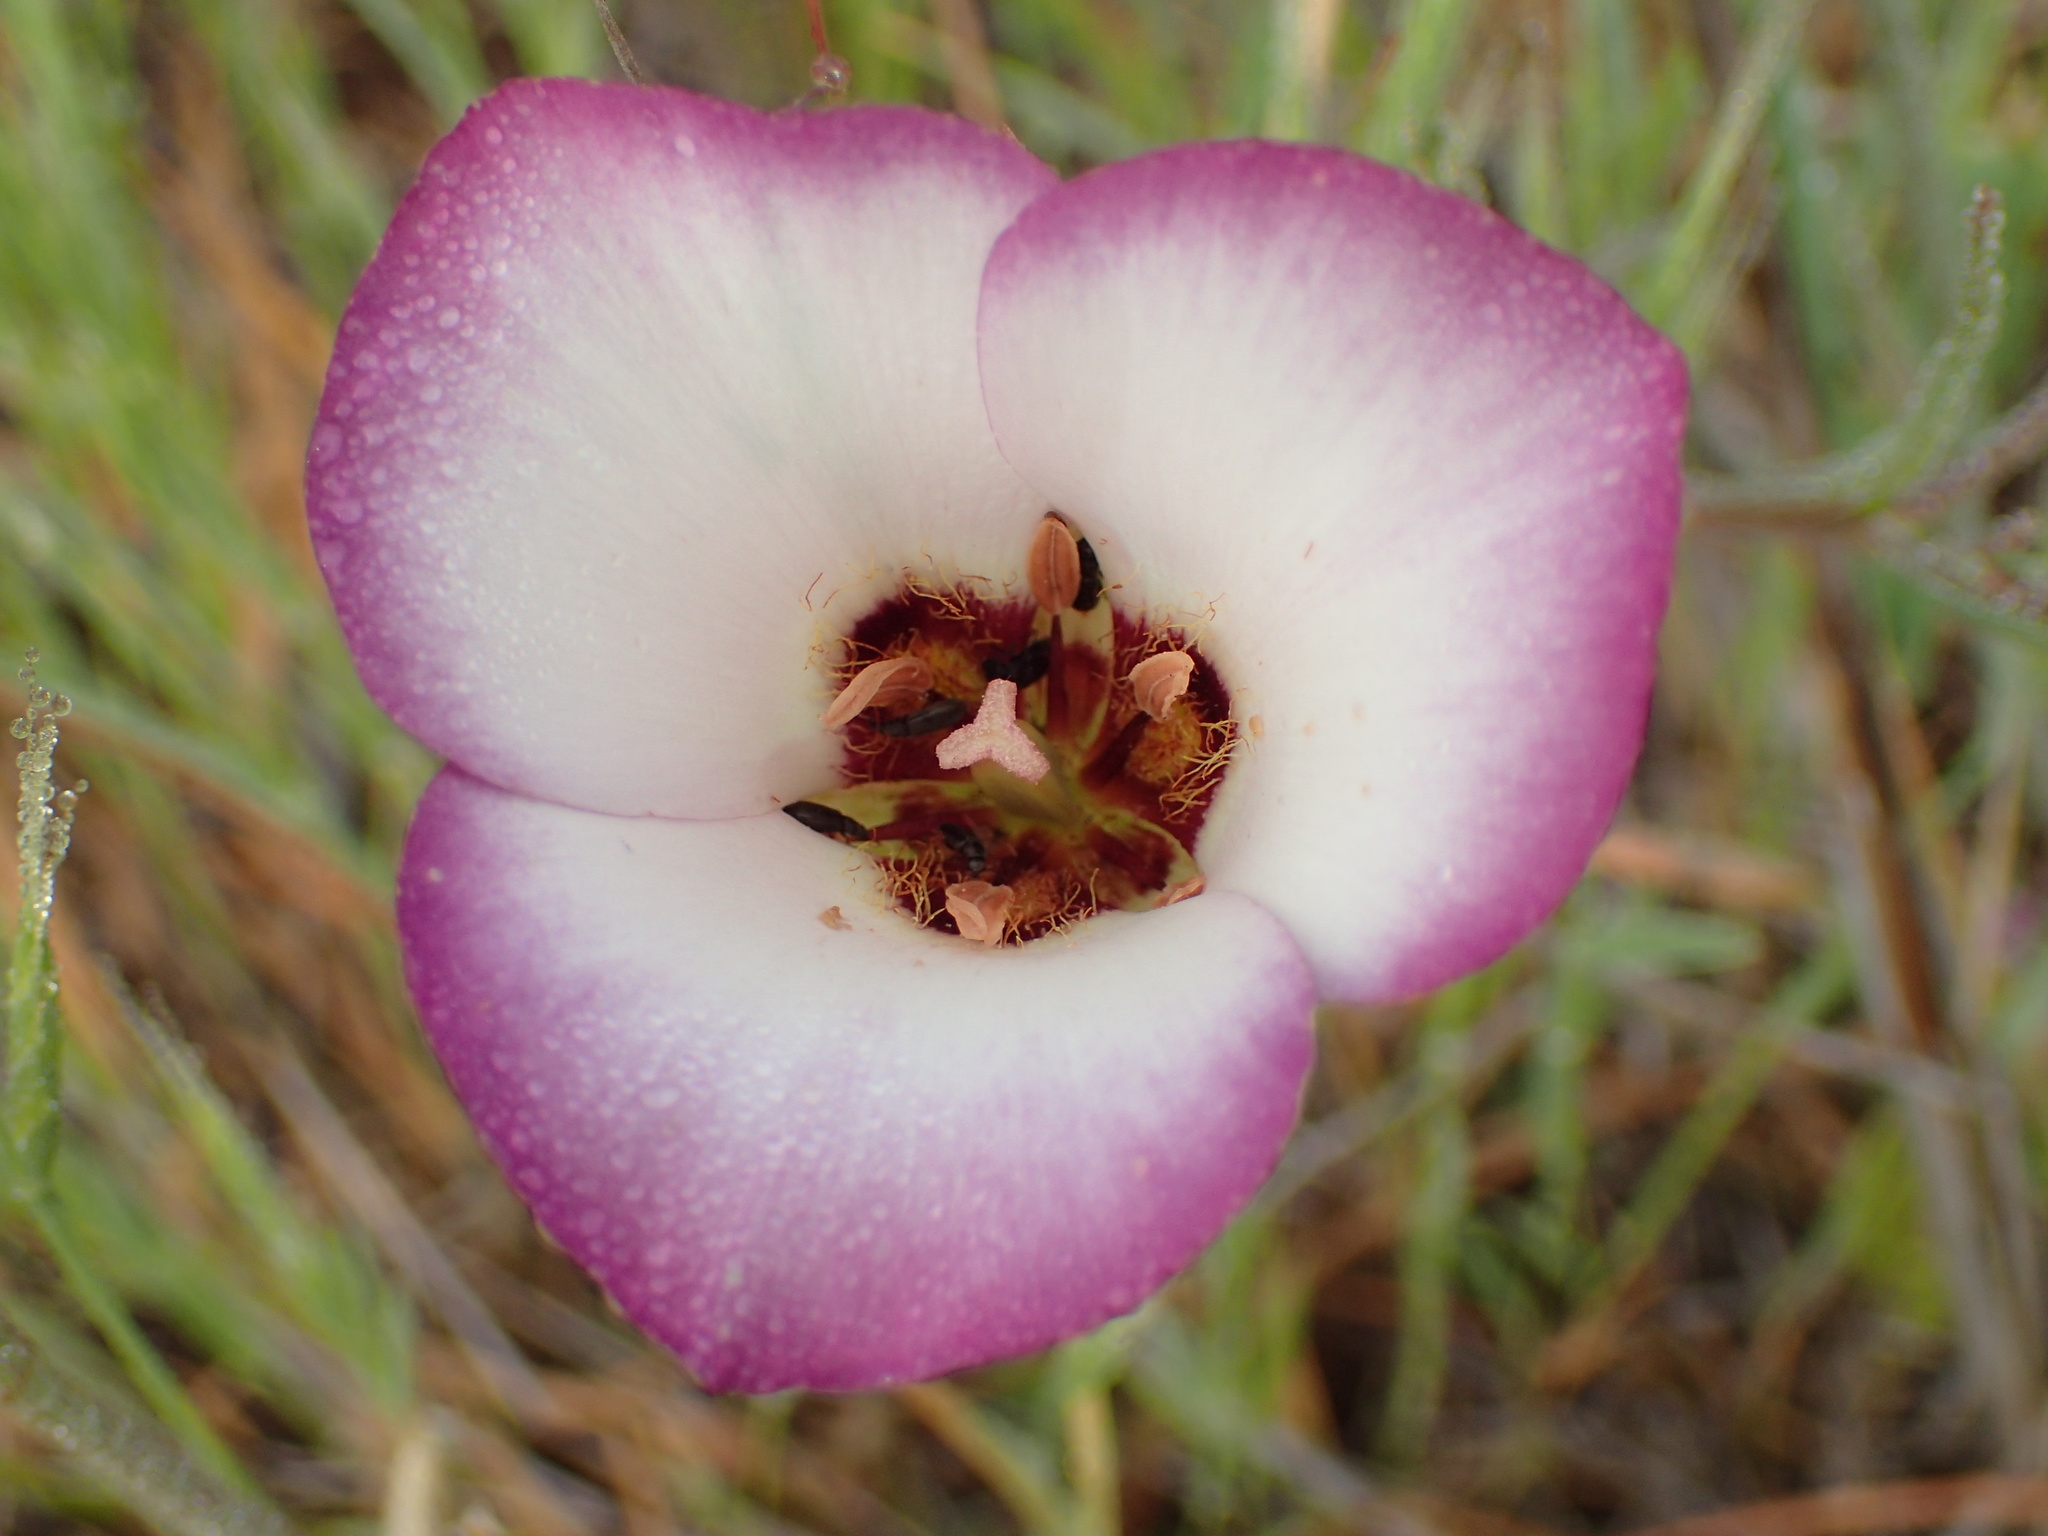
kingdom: Plantae
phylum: Tracheophyta
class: Liliopsida
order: Liliales
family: Liliaceae
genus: Calochortus
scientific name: Calochortus catalinae
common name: Catalina mariposa-lily
